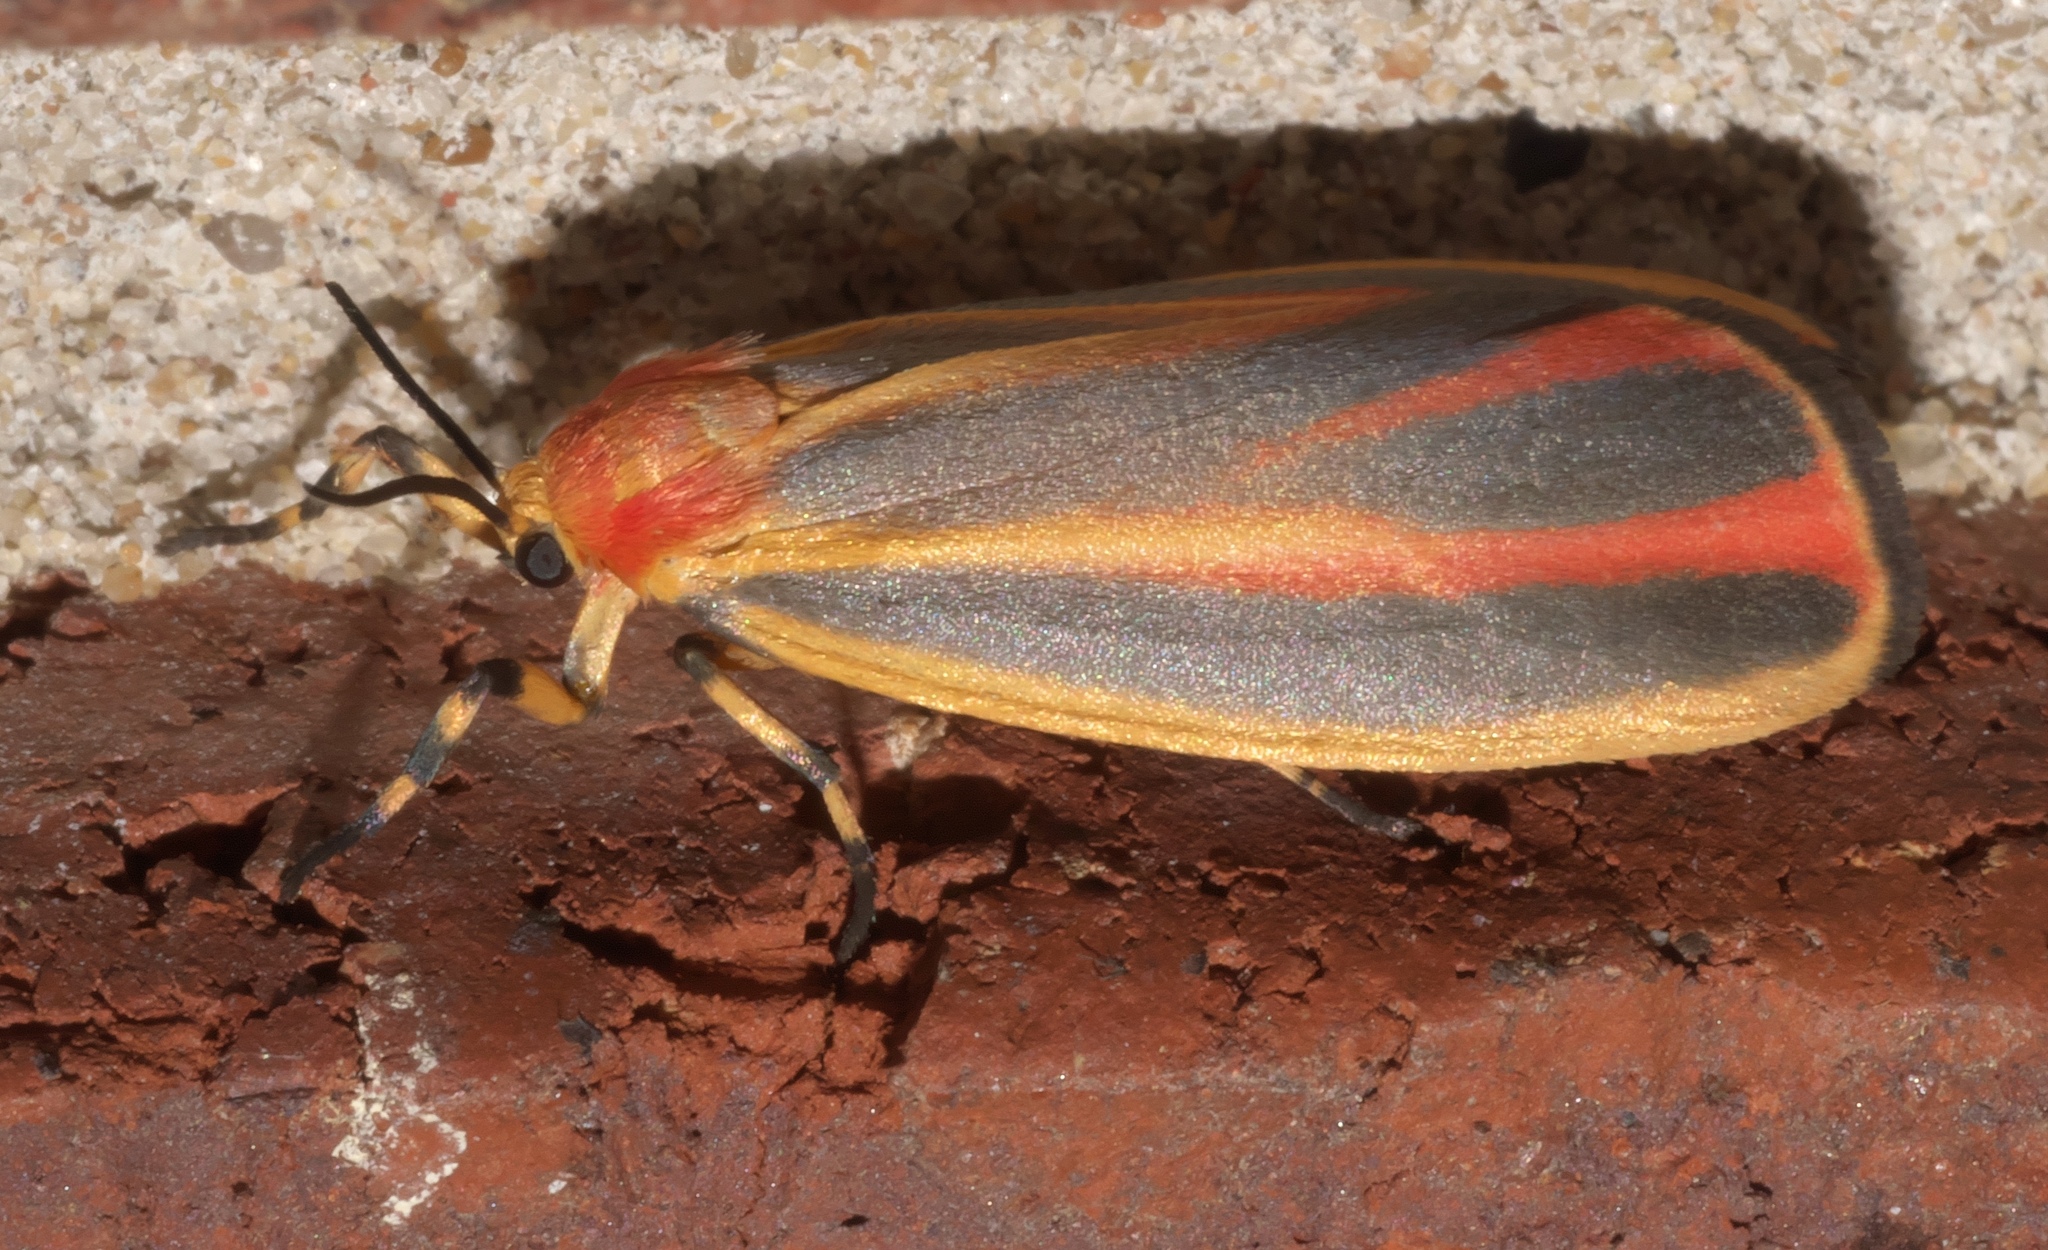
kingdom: Animalia
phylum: Arthropoda
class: Insecta
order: Lepidoptera
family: Erebidae
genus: Hypoprepia
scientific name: Hypoprepia fucosa
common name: Painted lichen moth
